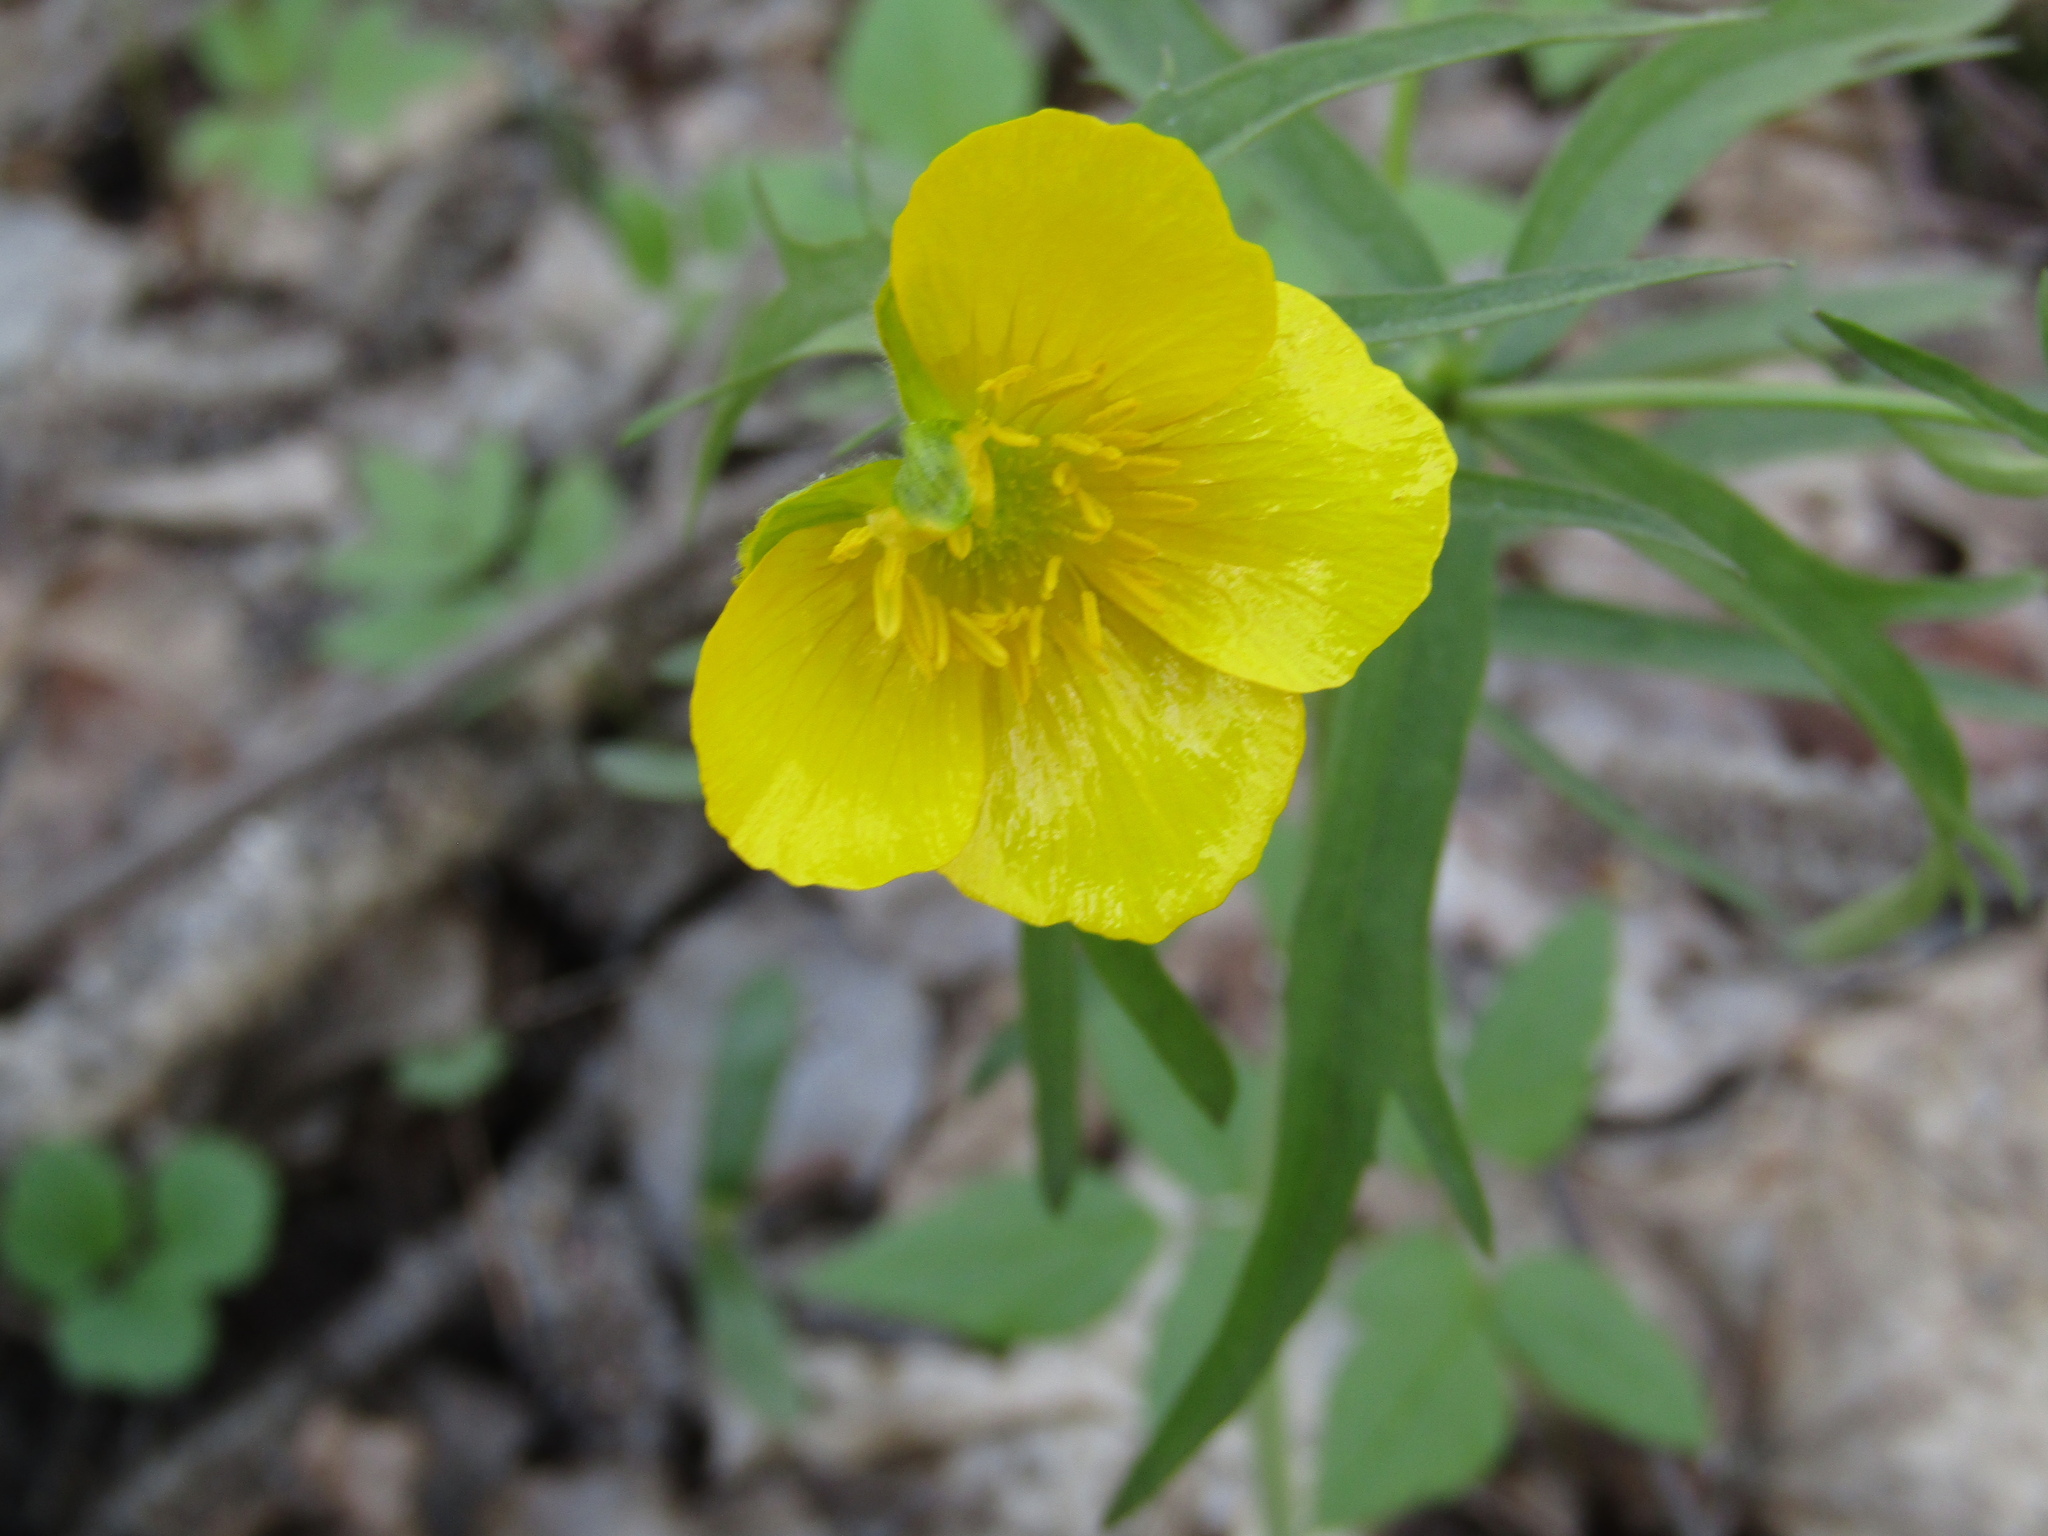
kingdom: Plantae
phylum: Tracheophyta
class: Magnoliopsida
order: Ranunculales
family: Ranunculaceae
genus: Ranunculus
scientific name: Ranunculus cassubicus
